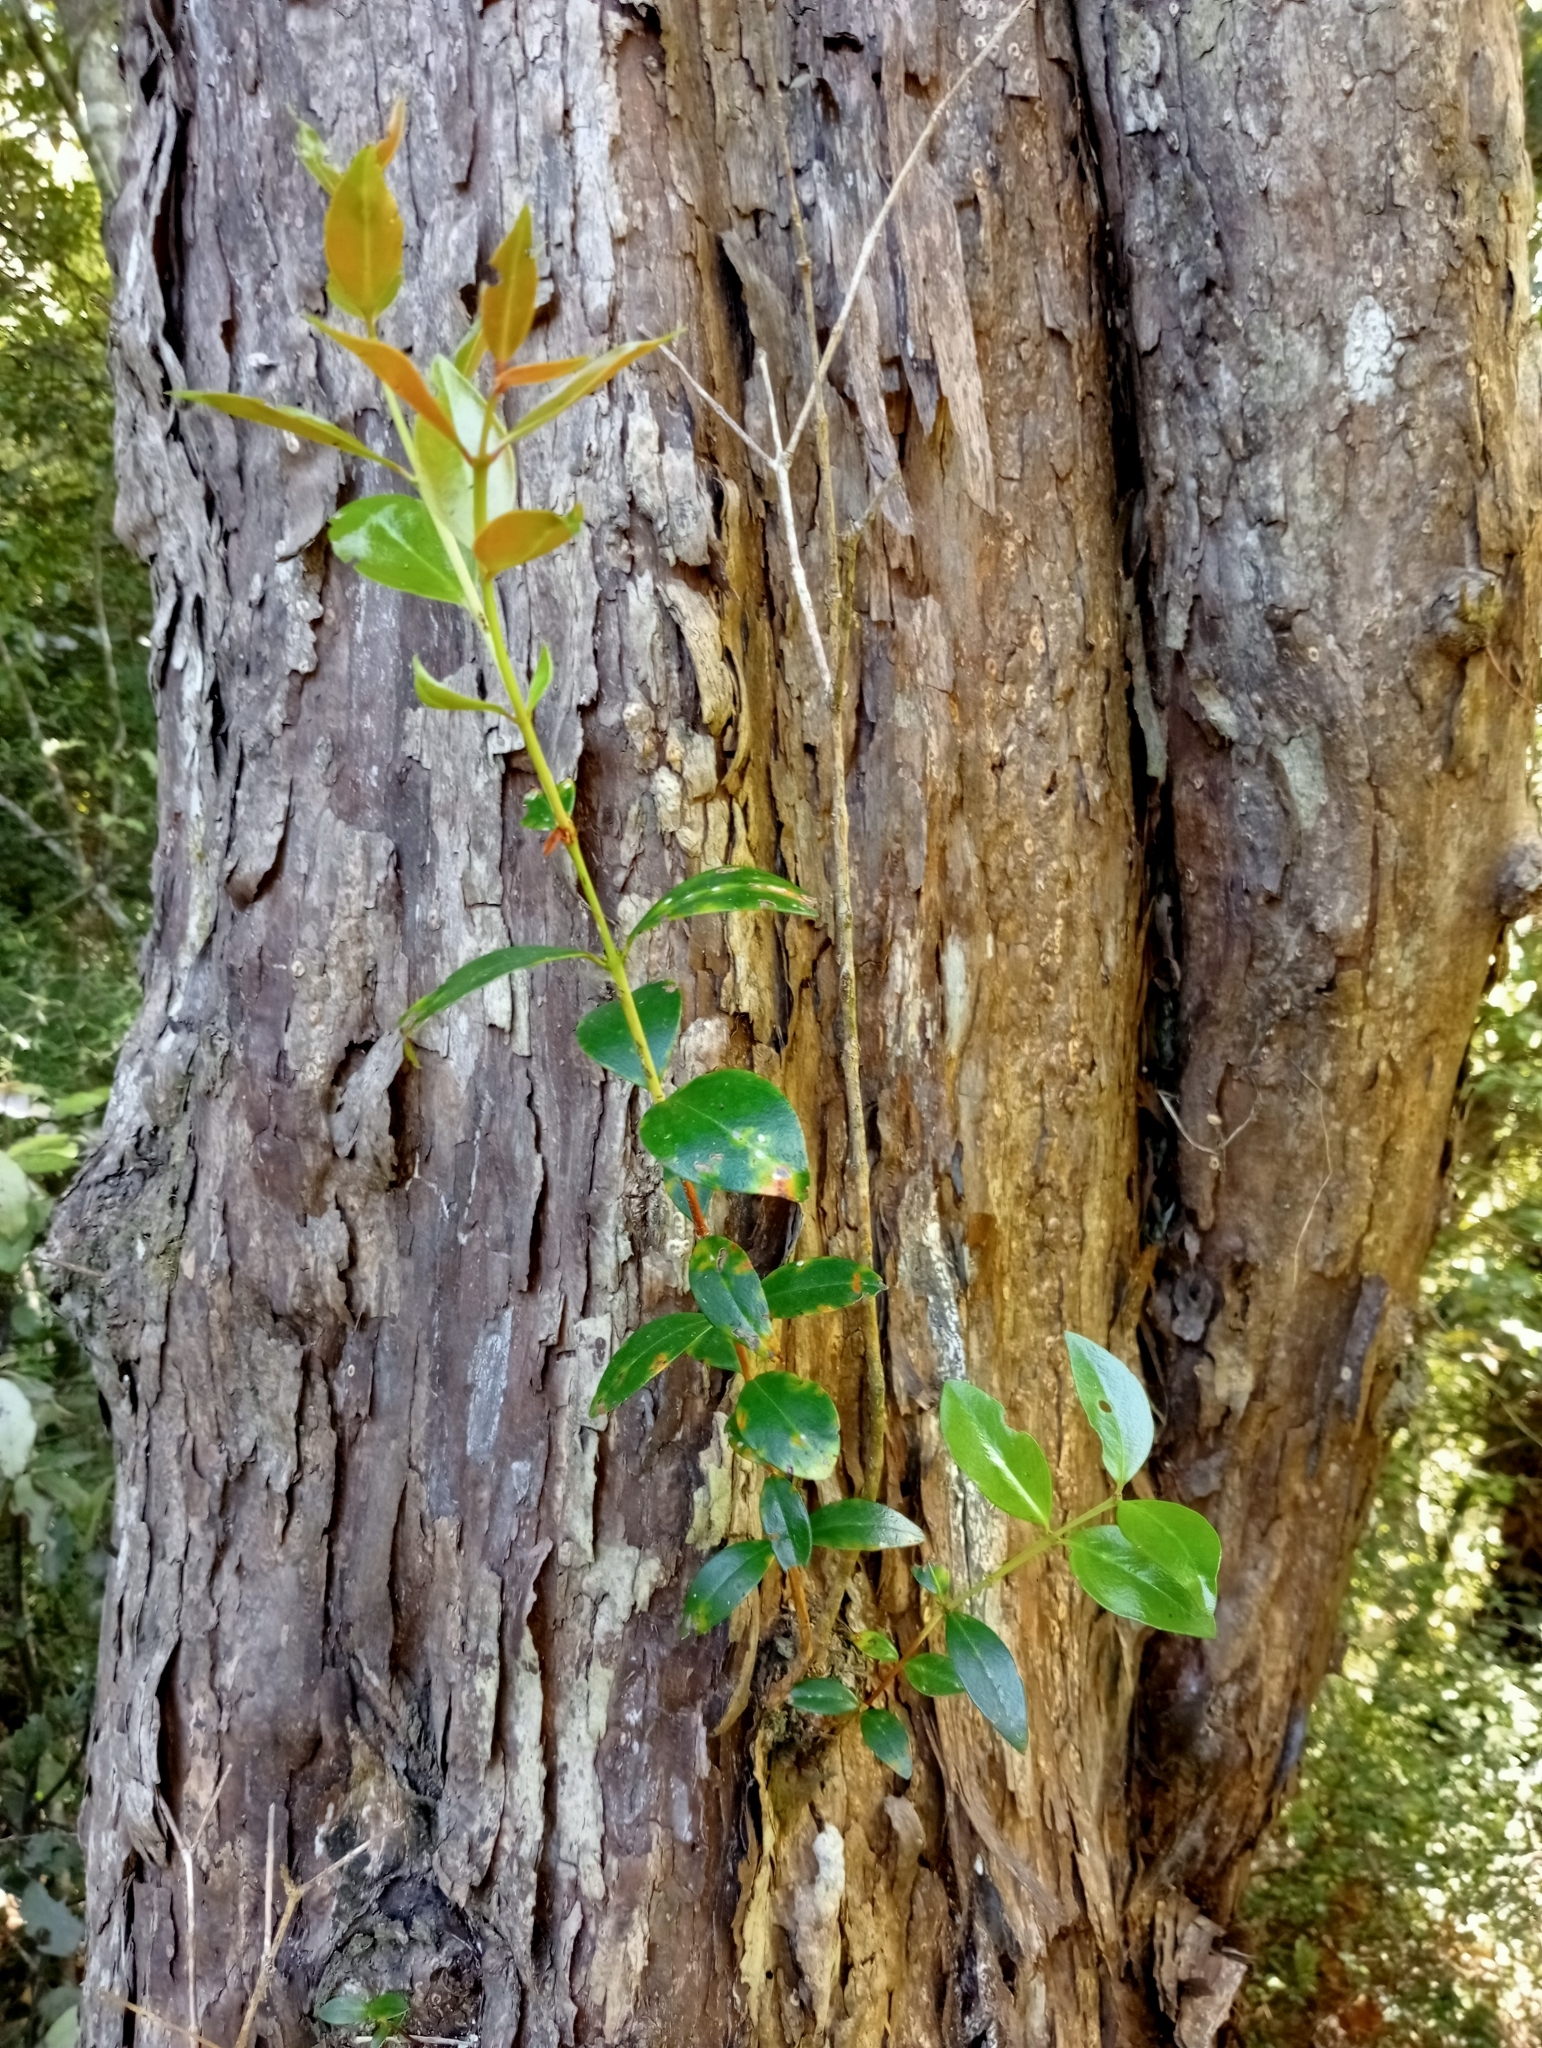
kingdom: Plantae
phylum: Tracheophyta
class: Magnoliopsida
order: Myrtales
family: Myrtaceae
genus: Metrosideros
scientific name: Metrosideros umbellata
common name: Southern rata
